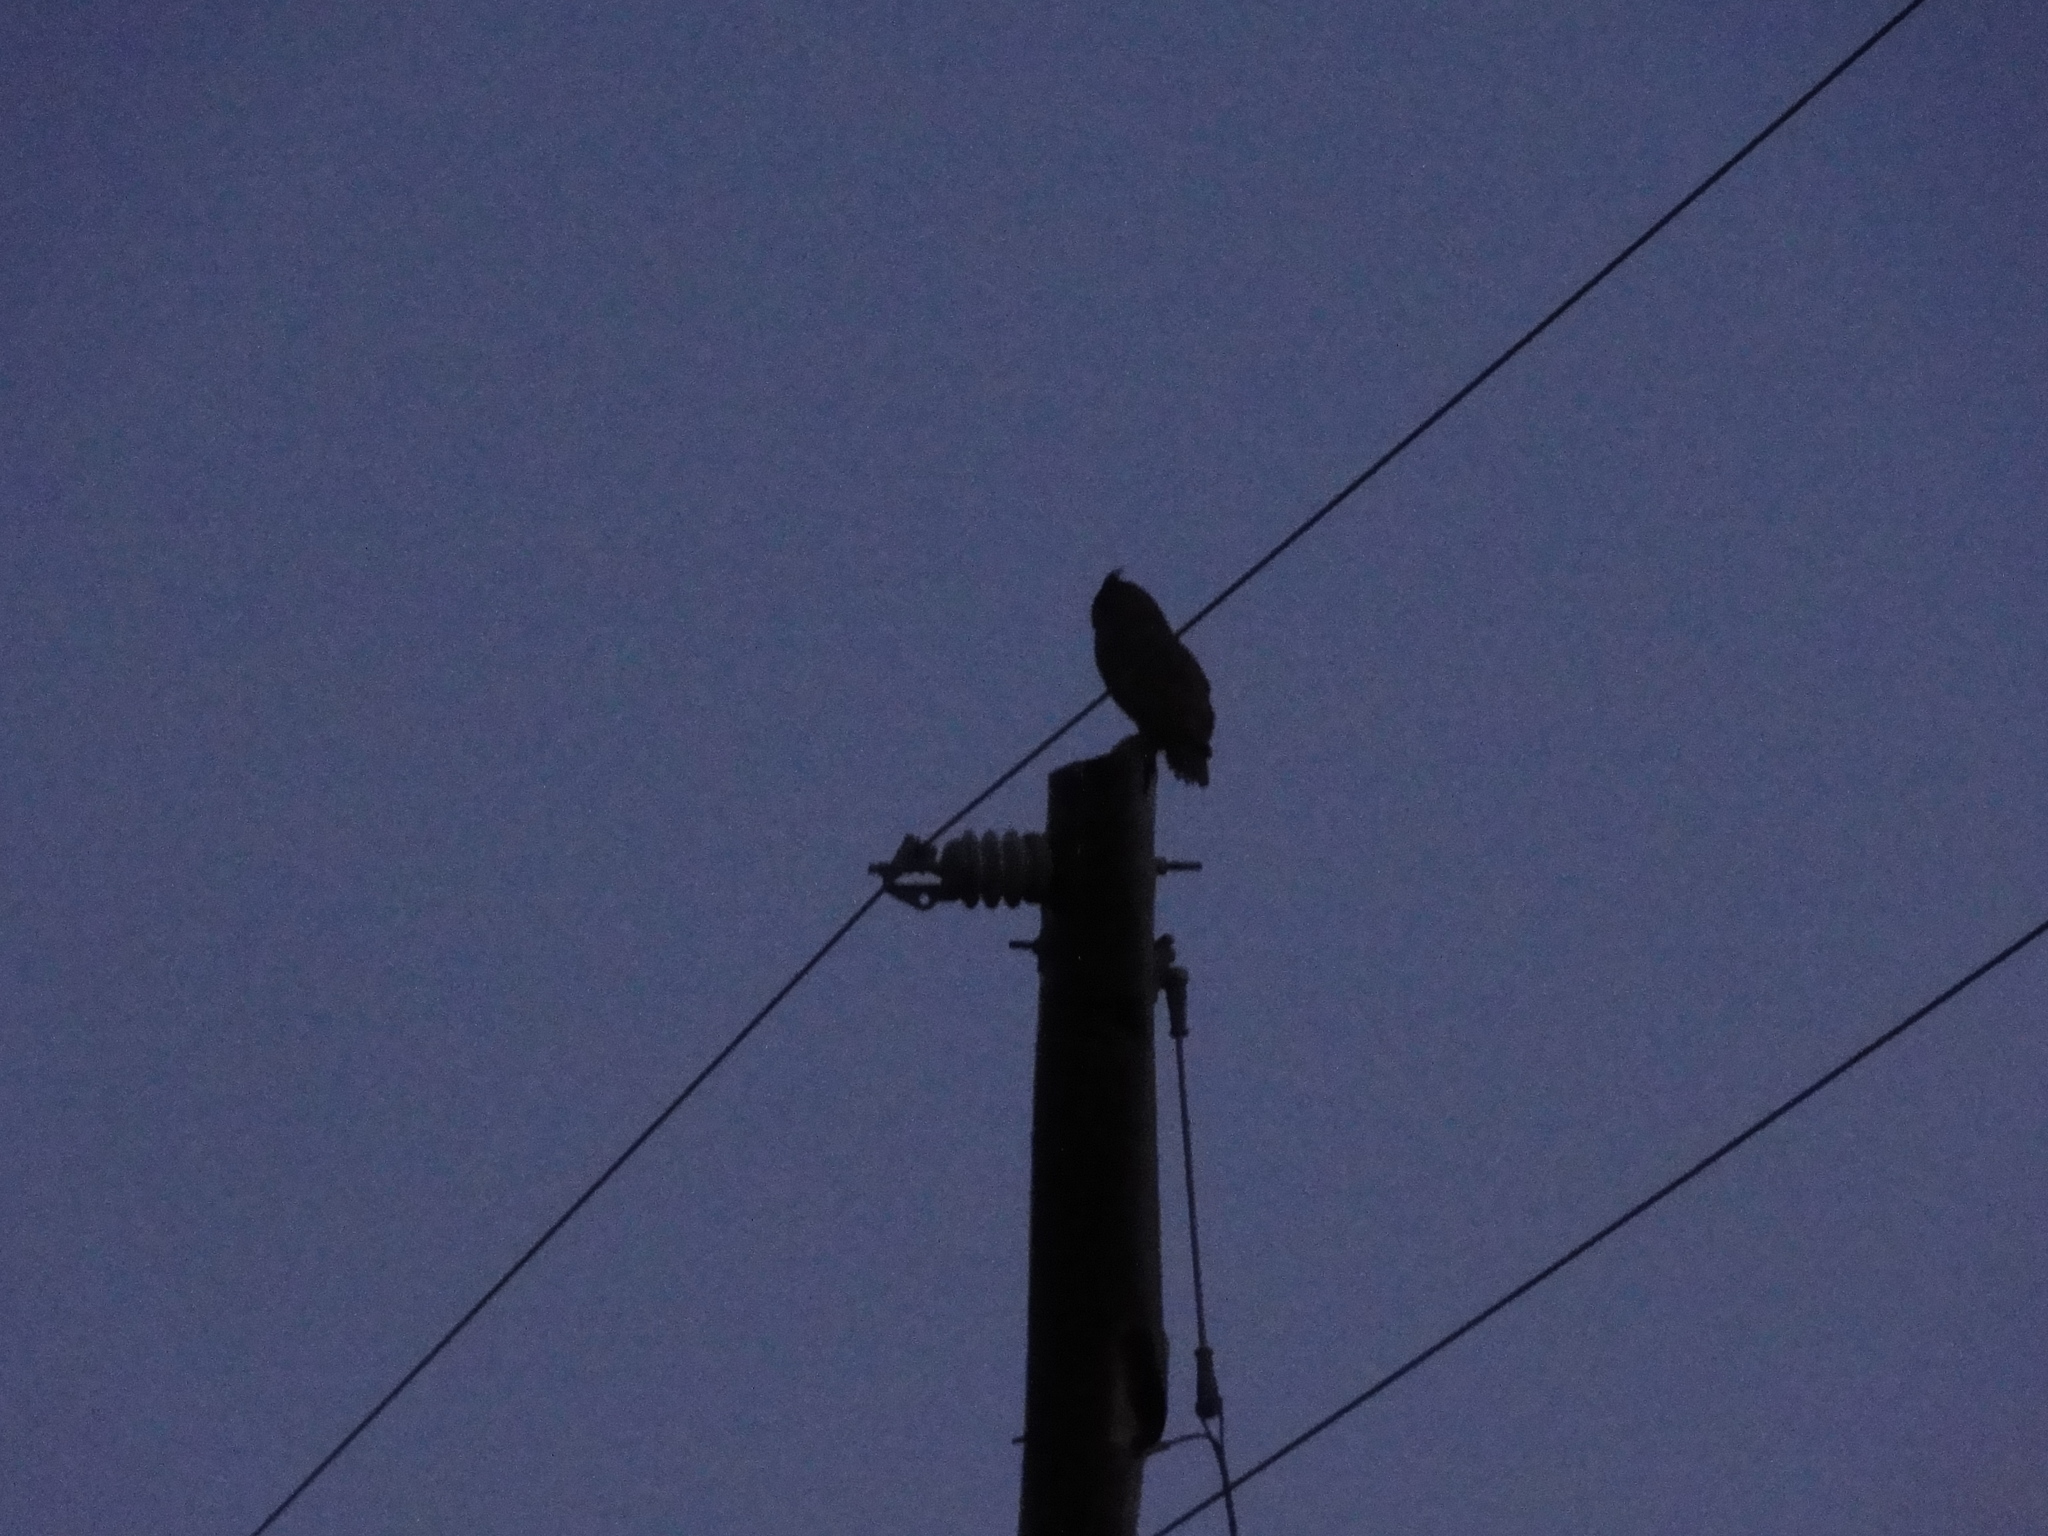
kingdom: Animalia
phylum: Chordata
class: Aves
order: Strigiformes
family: Strigidae
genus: Bubo
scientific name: Bubo virginianus
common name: Great horned owl
